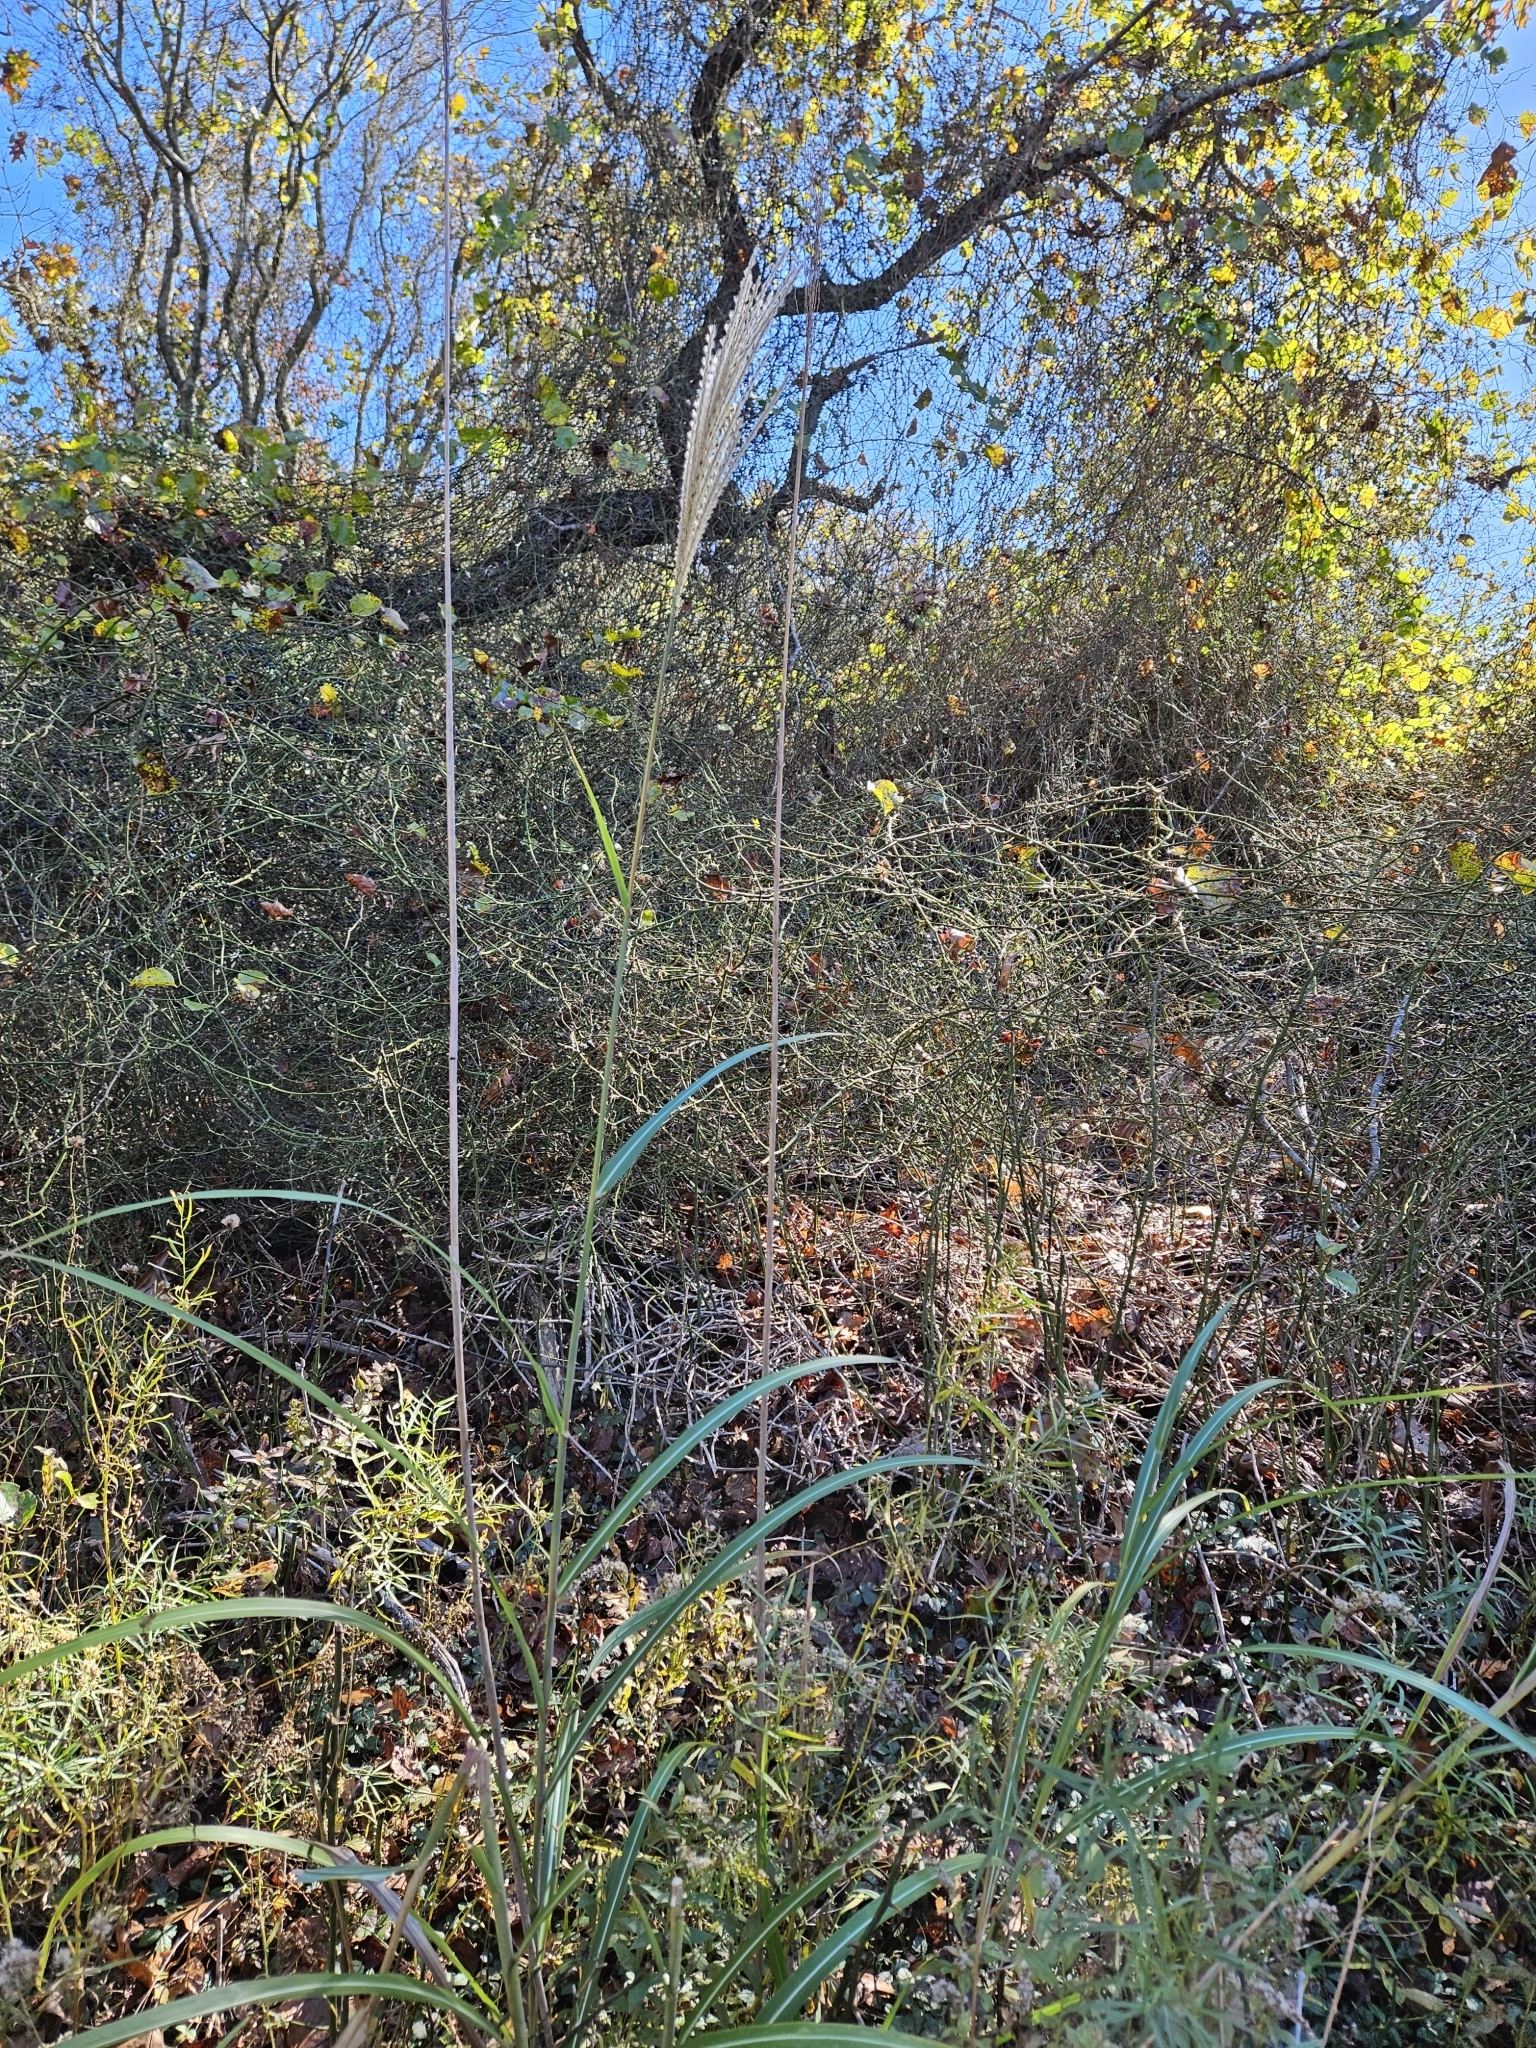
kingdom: Plantae
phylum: Tracheophyta
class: Liliopsida
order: Poales
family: Poaceae
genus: Miscanthus
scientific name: Miscanthus sinensis
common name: Chinese silvergrass
